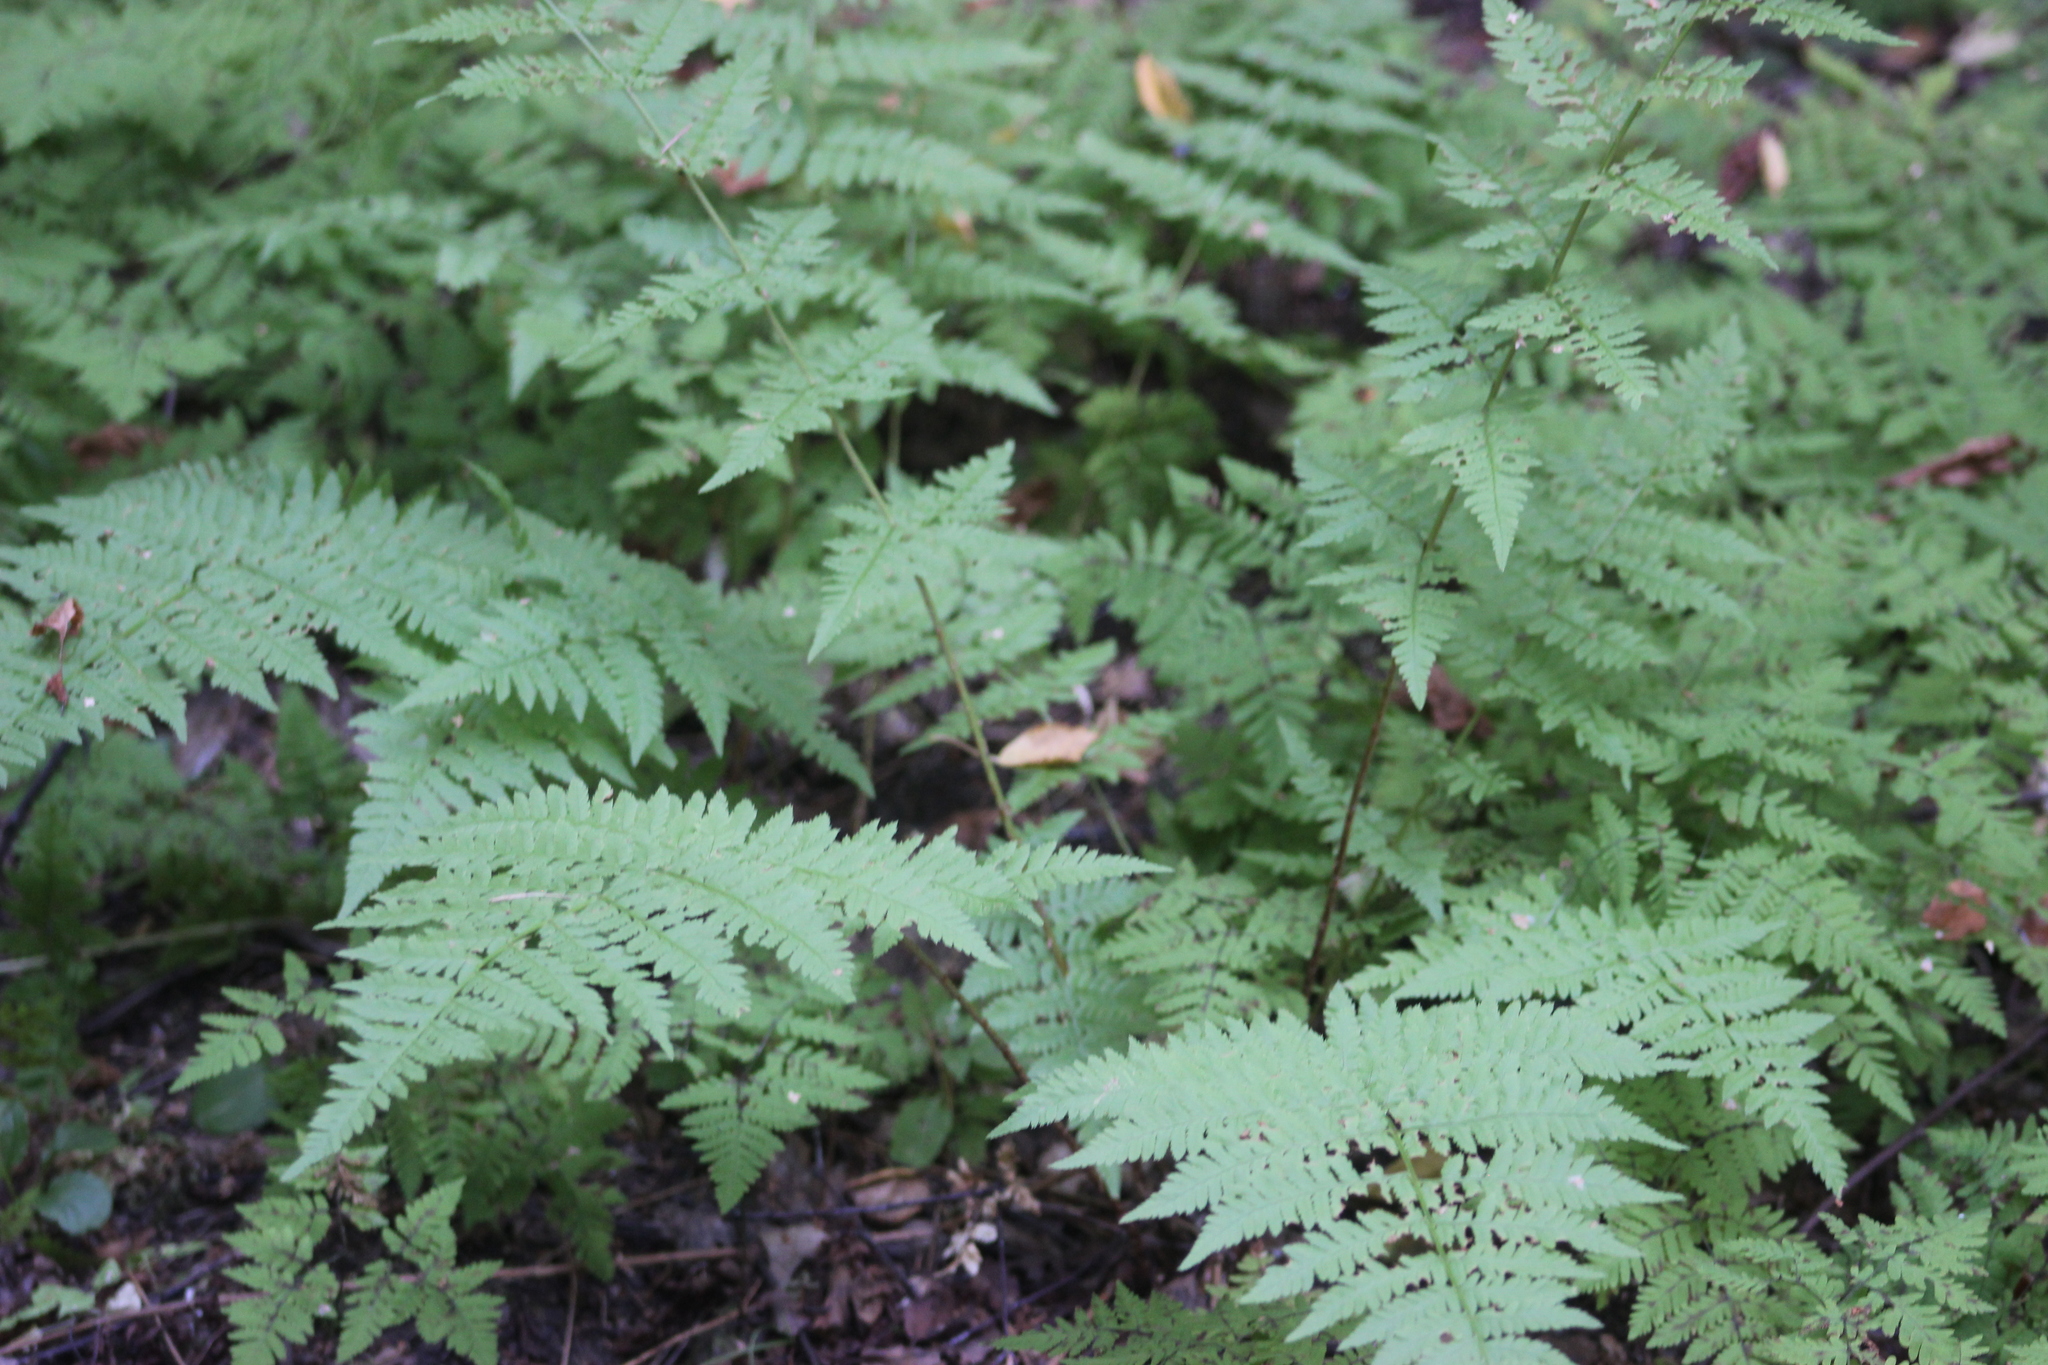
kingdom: Plantae
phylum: Tracheophyta
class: Polypodiopsida
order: Polypodiales
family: Dryopteridaceae
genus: Dryopteris
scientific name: Dryopteris carthusiana
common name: Narrow buckler-fern
